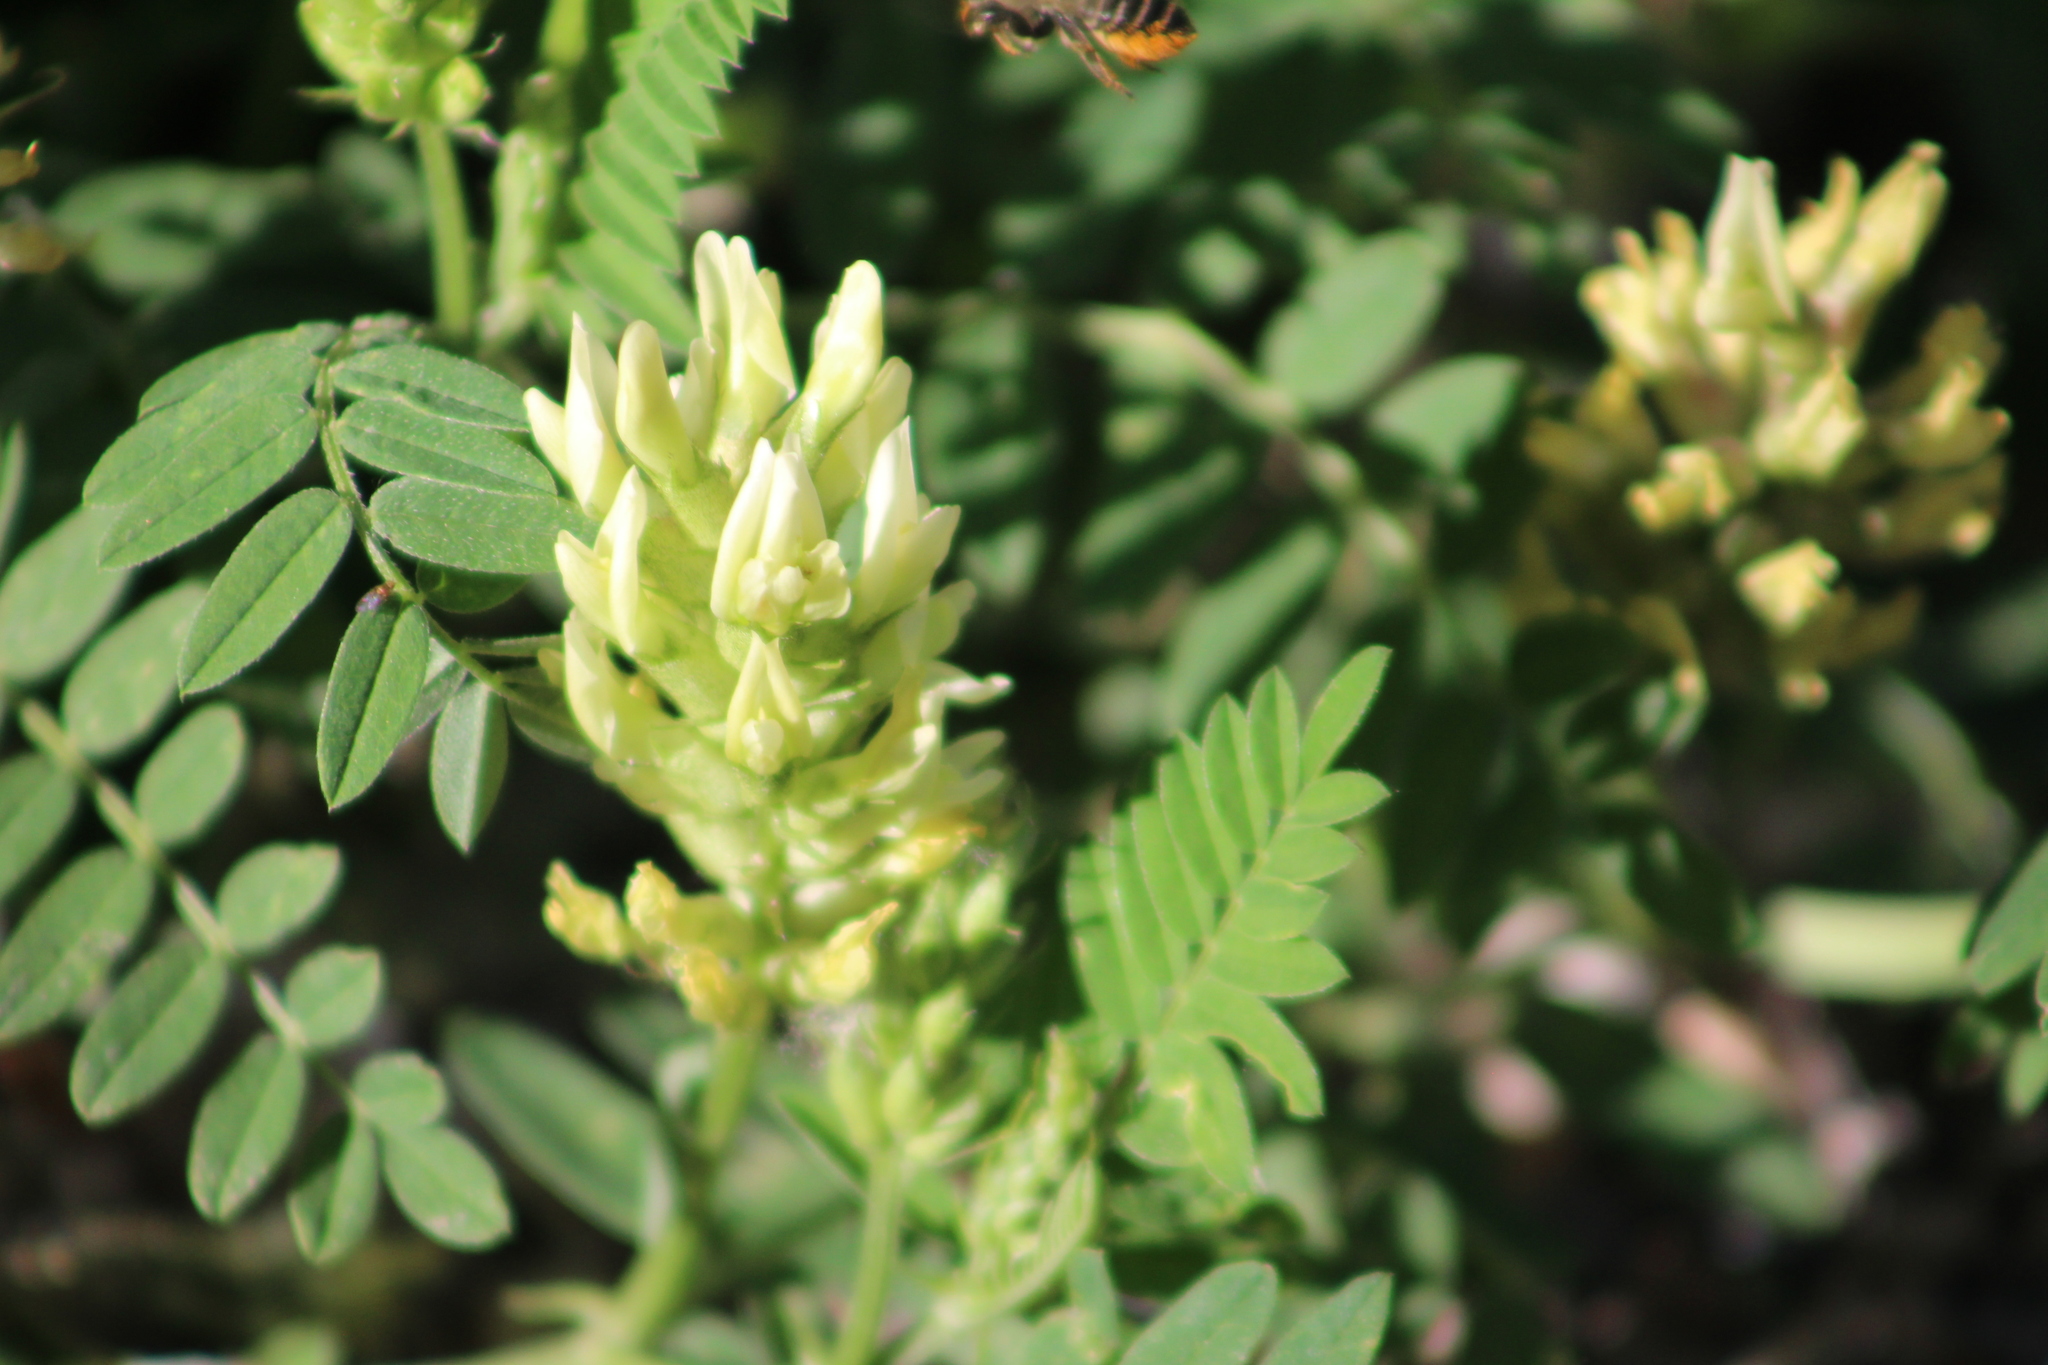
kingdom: Plantae
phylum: Tracheophyta
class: Magnoliopsida
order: Fabales
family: Fabaceae
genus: Astragalus
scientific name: Astragalus cicer
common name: Chick-pea milk-vetch
